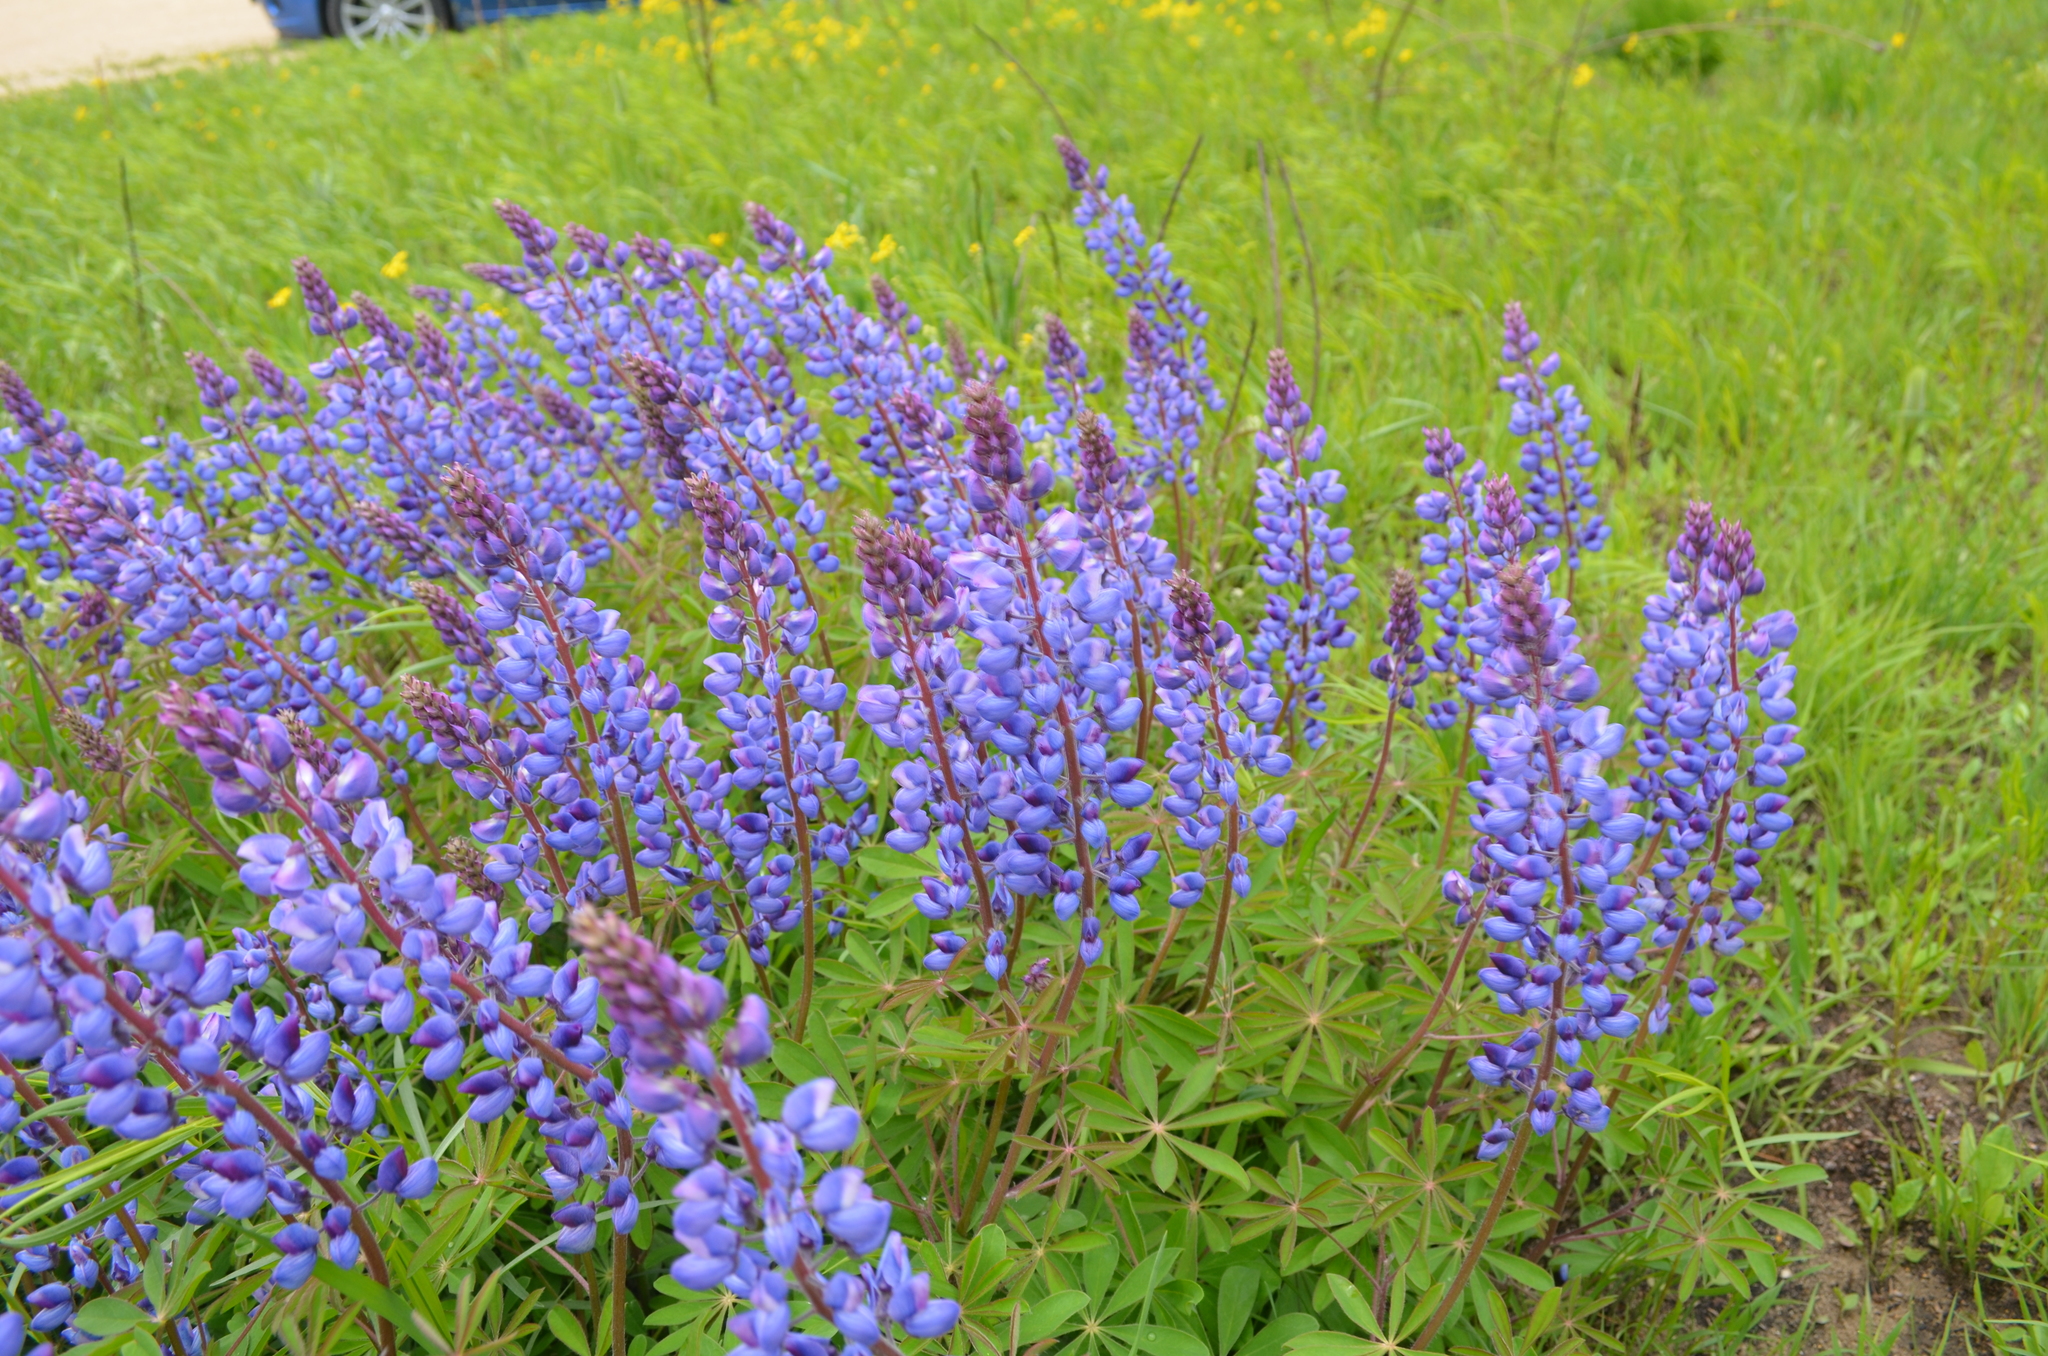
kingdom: Plantae
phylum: Tracheophyta
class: Magnoliopsida
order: Fabales
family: Fabaceae
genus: Lupinus
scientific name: Lupinus perennis
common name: Sundial lupine
